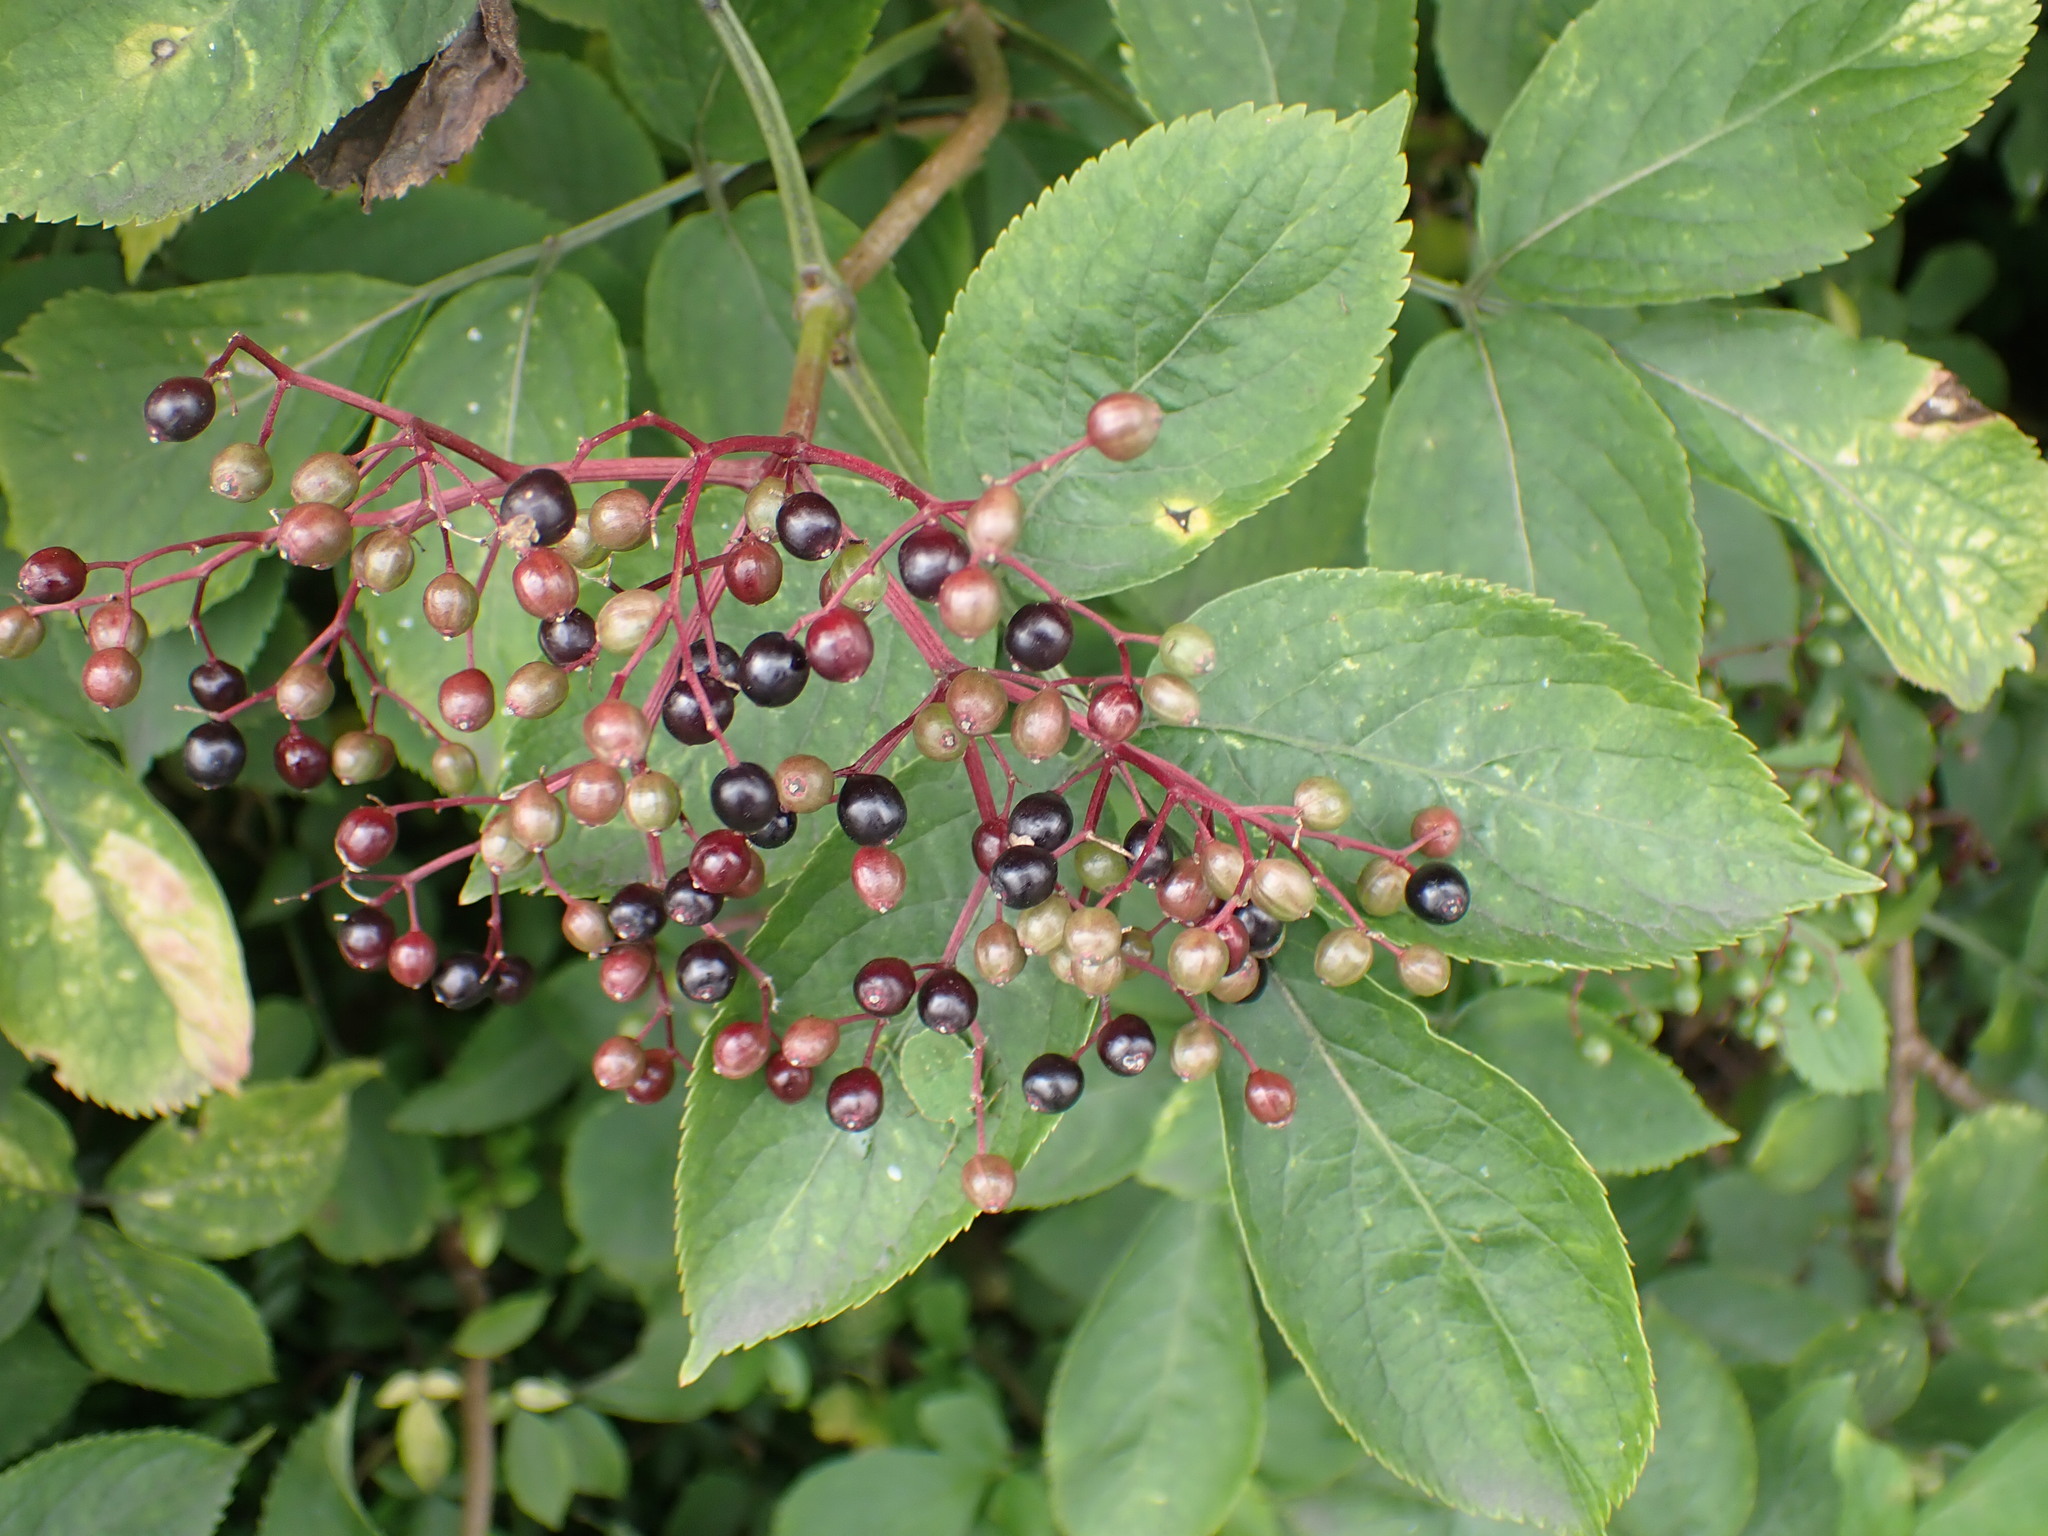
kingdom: Plantae
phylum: Tracheophyta
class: Magnoliopsida
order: Dipsacales
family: Viburnaceae
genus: Sambucus
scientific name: Sambucus nigra
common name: Elder
